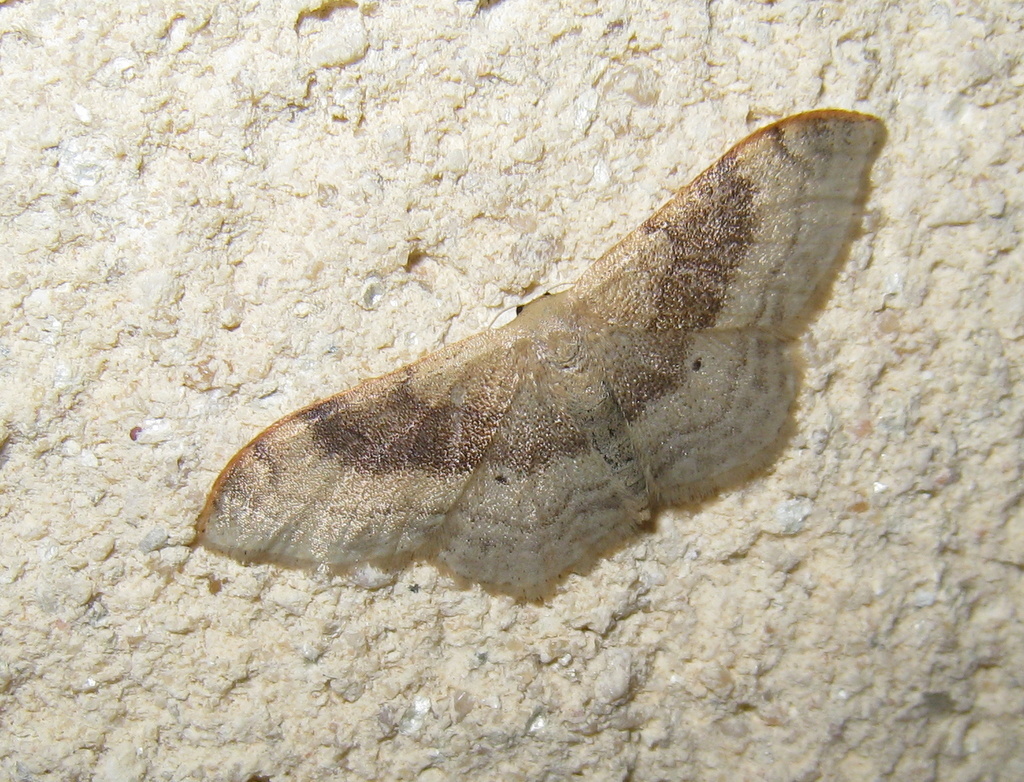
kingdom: Animalia
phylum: Arthropoda
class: Insecta
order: Lepidoptera
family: Geometridae
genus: Idaea
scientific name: Idaea degeneraria
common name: Portland ribbon wave
